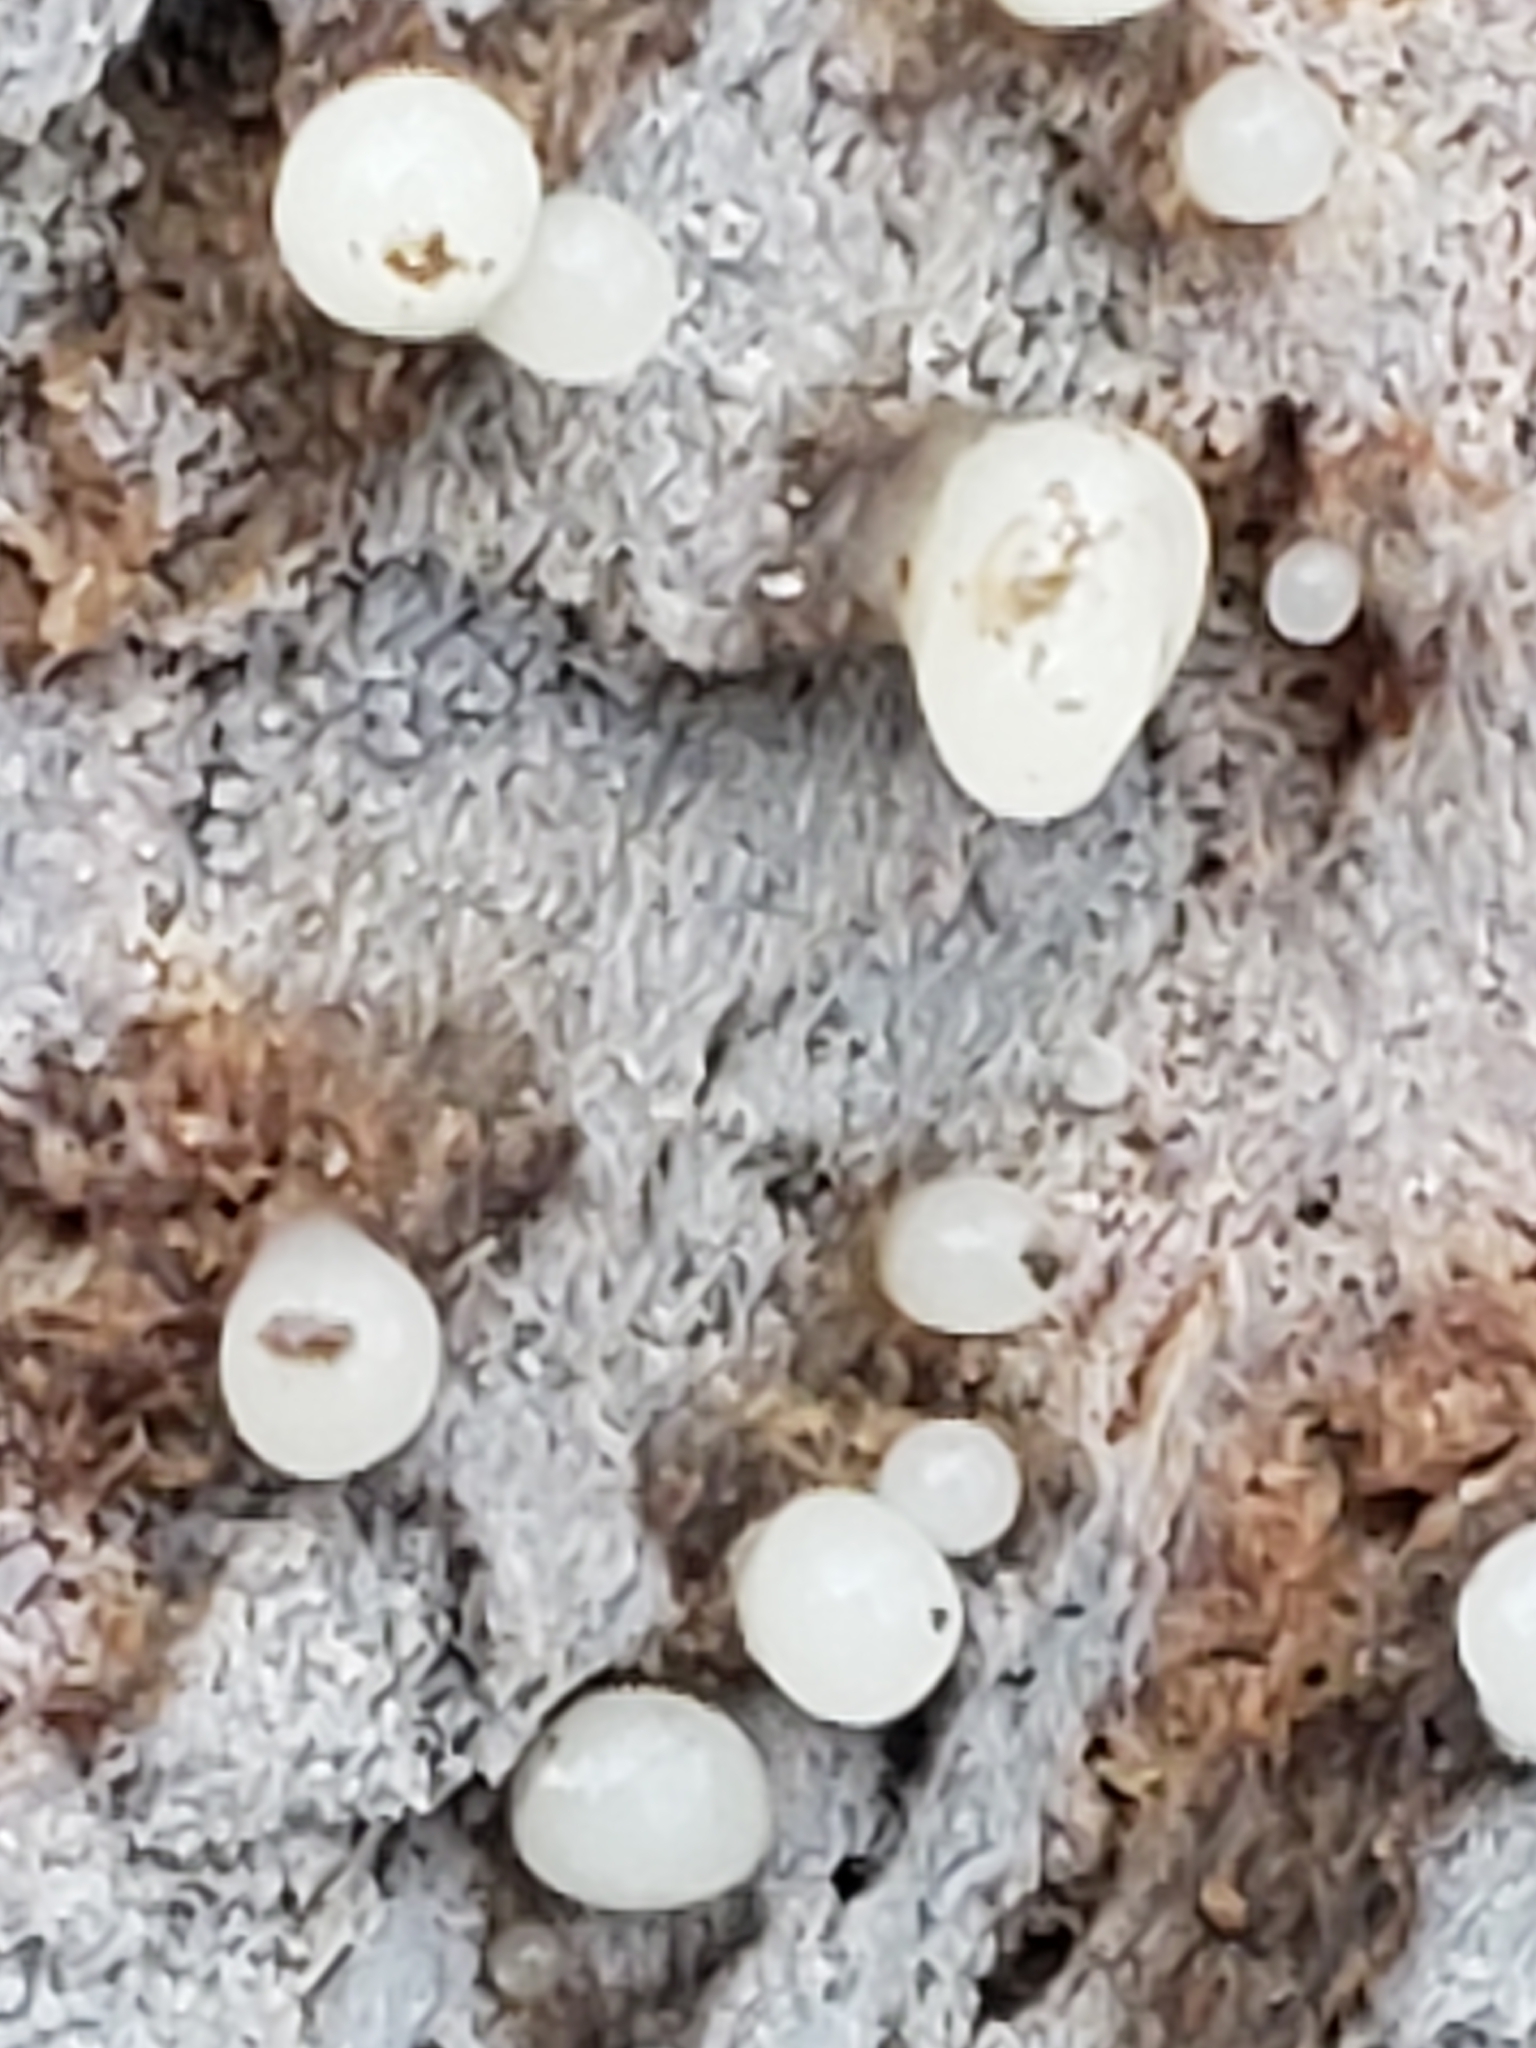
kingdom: Fungi
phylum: Basidiomycota
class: Atractiellomycetes
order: Atractiellales
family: Phleogenaceae
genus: Helicogloea
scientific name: Helicogloea compressa
